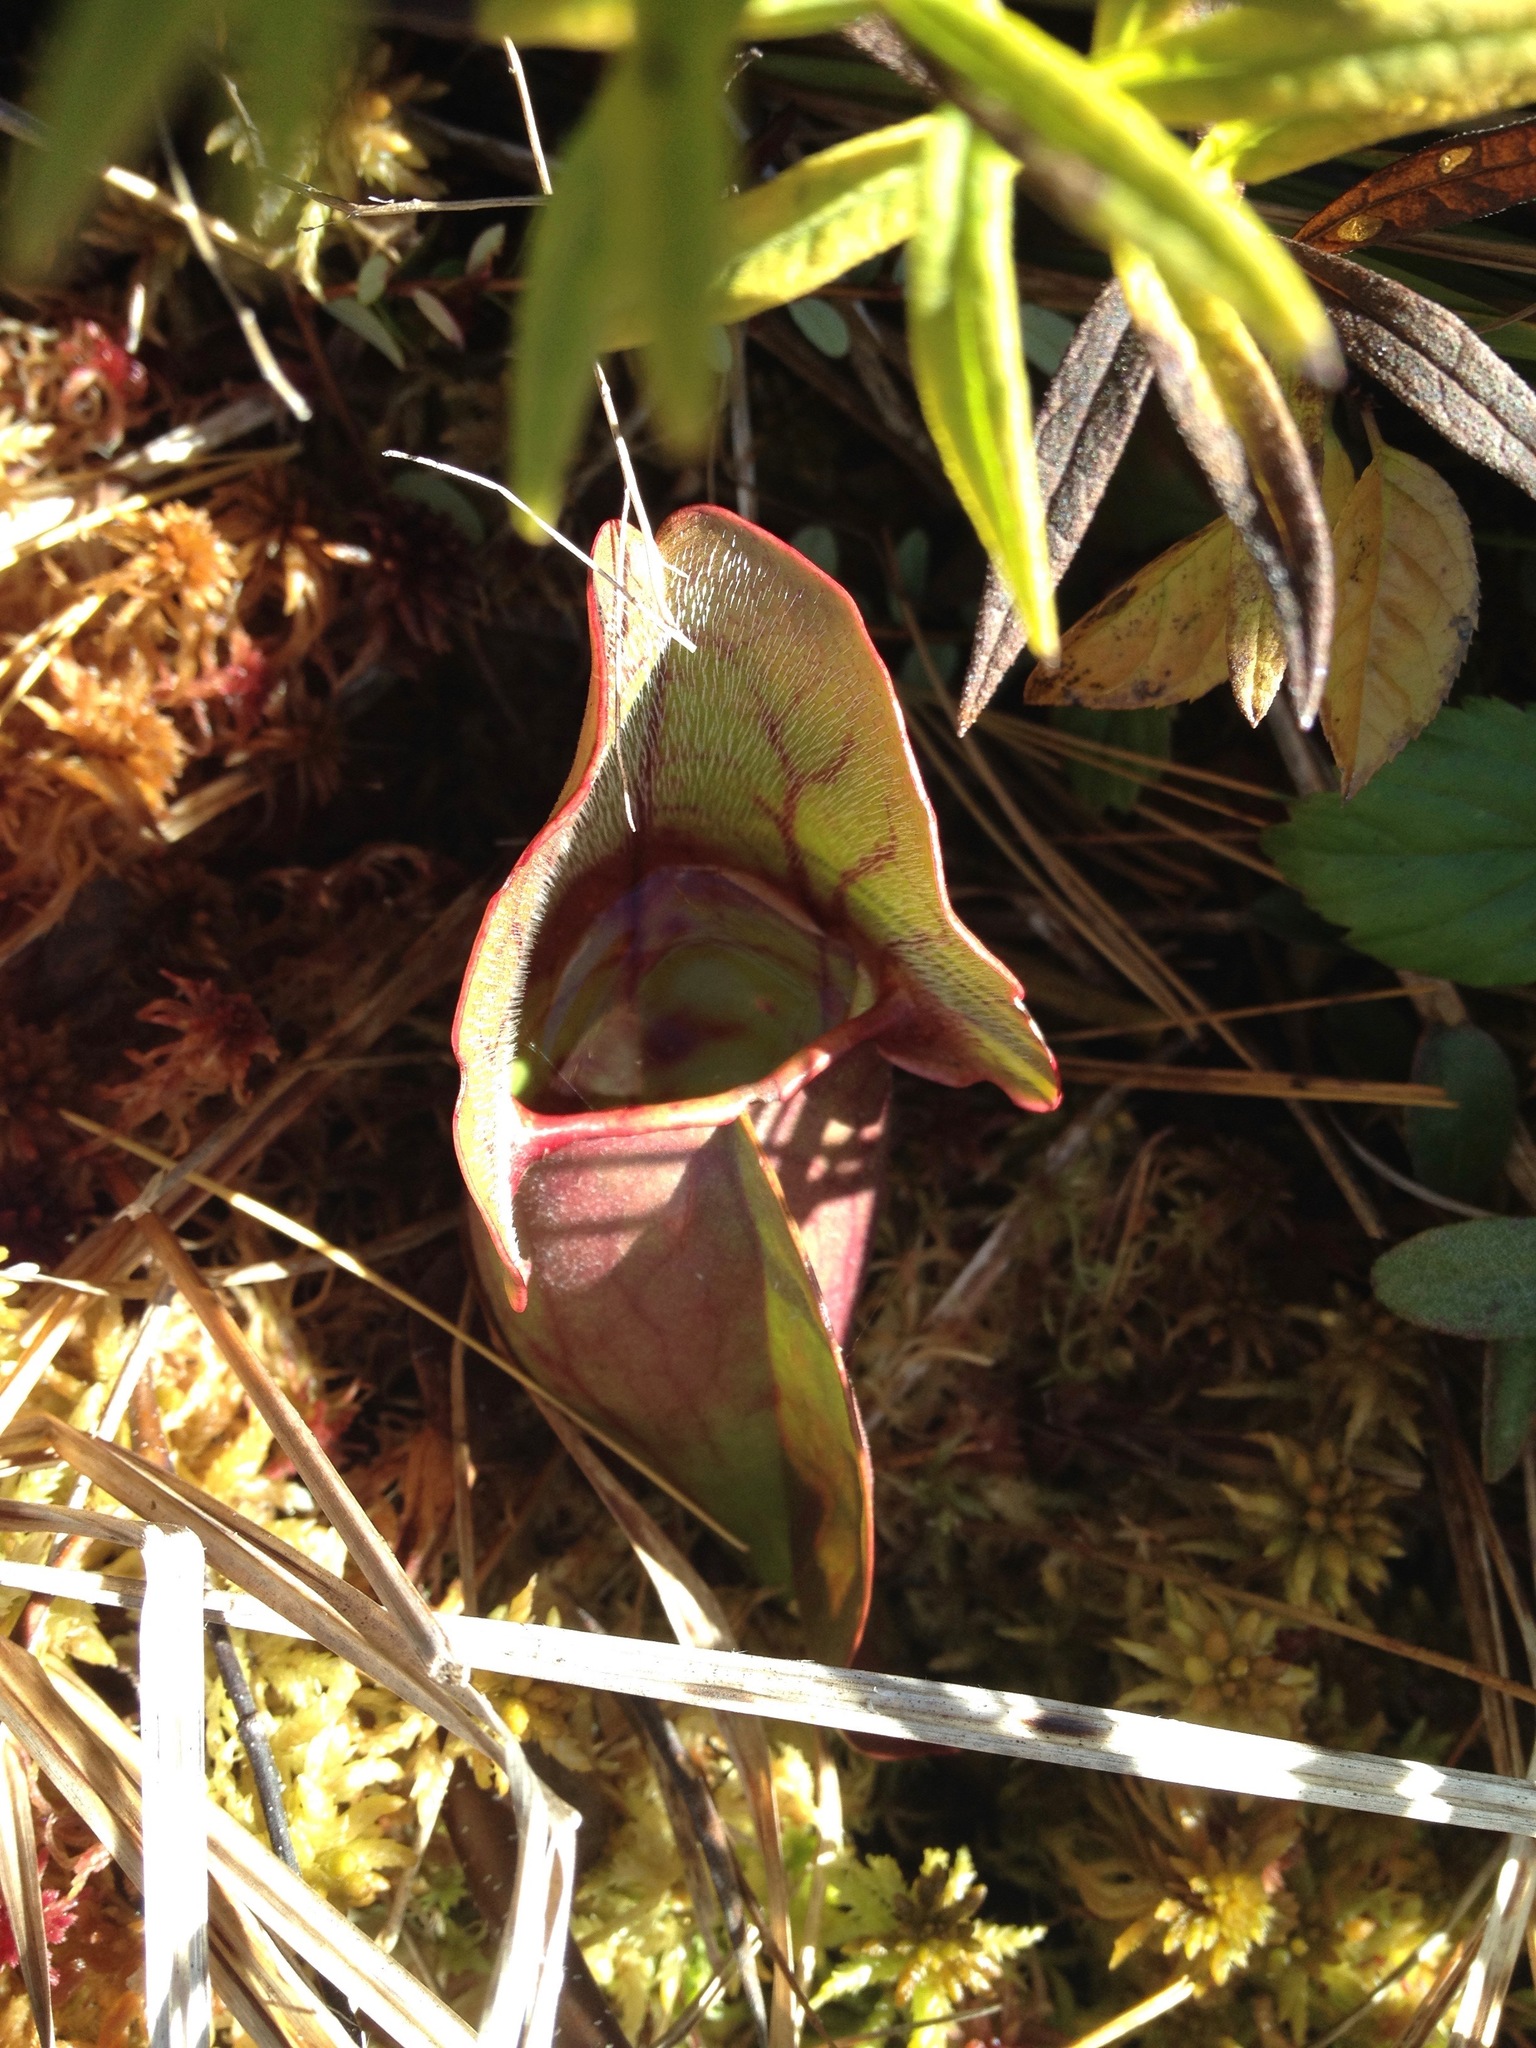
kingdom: Plantae
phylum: Tracheophyta
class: Magnoliopsida
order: Ericales
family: Sarraceniaceae
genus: Sarracenia
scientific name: Sarracenia purpurea
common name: Pitcherplant
